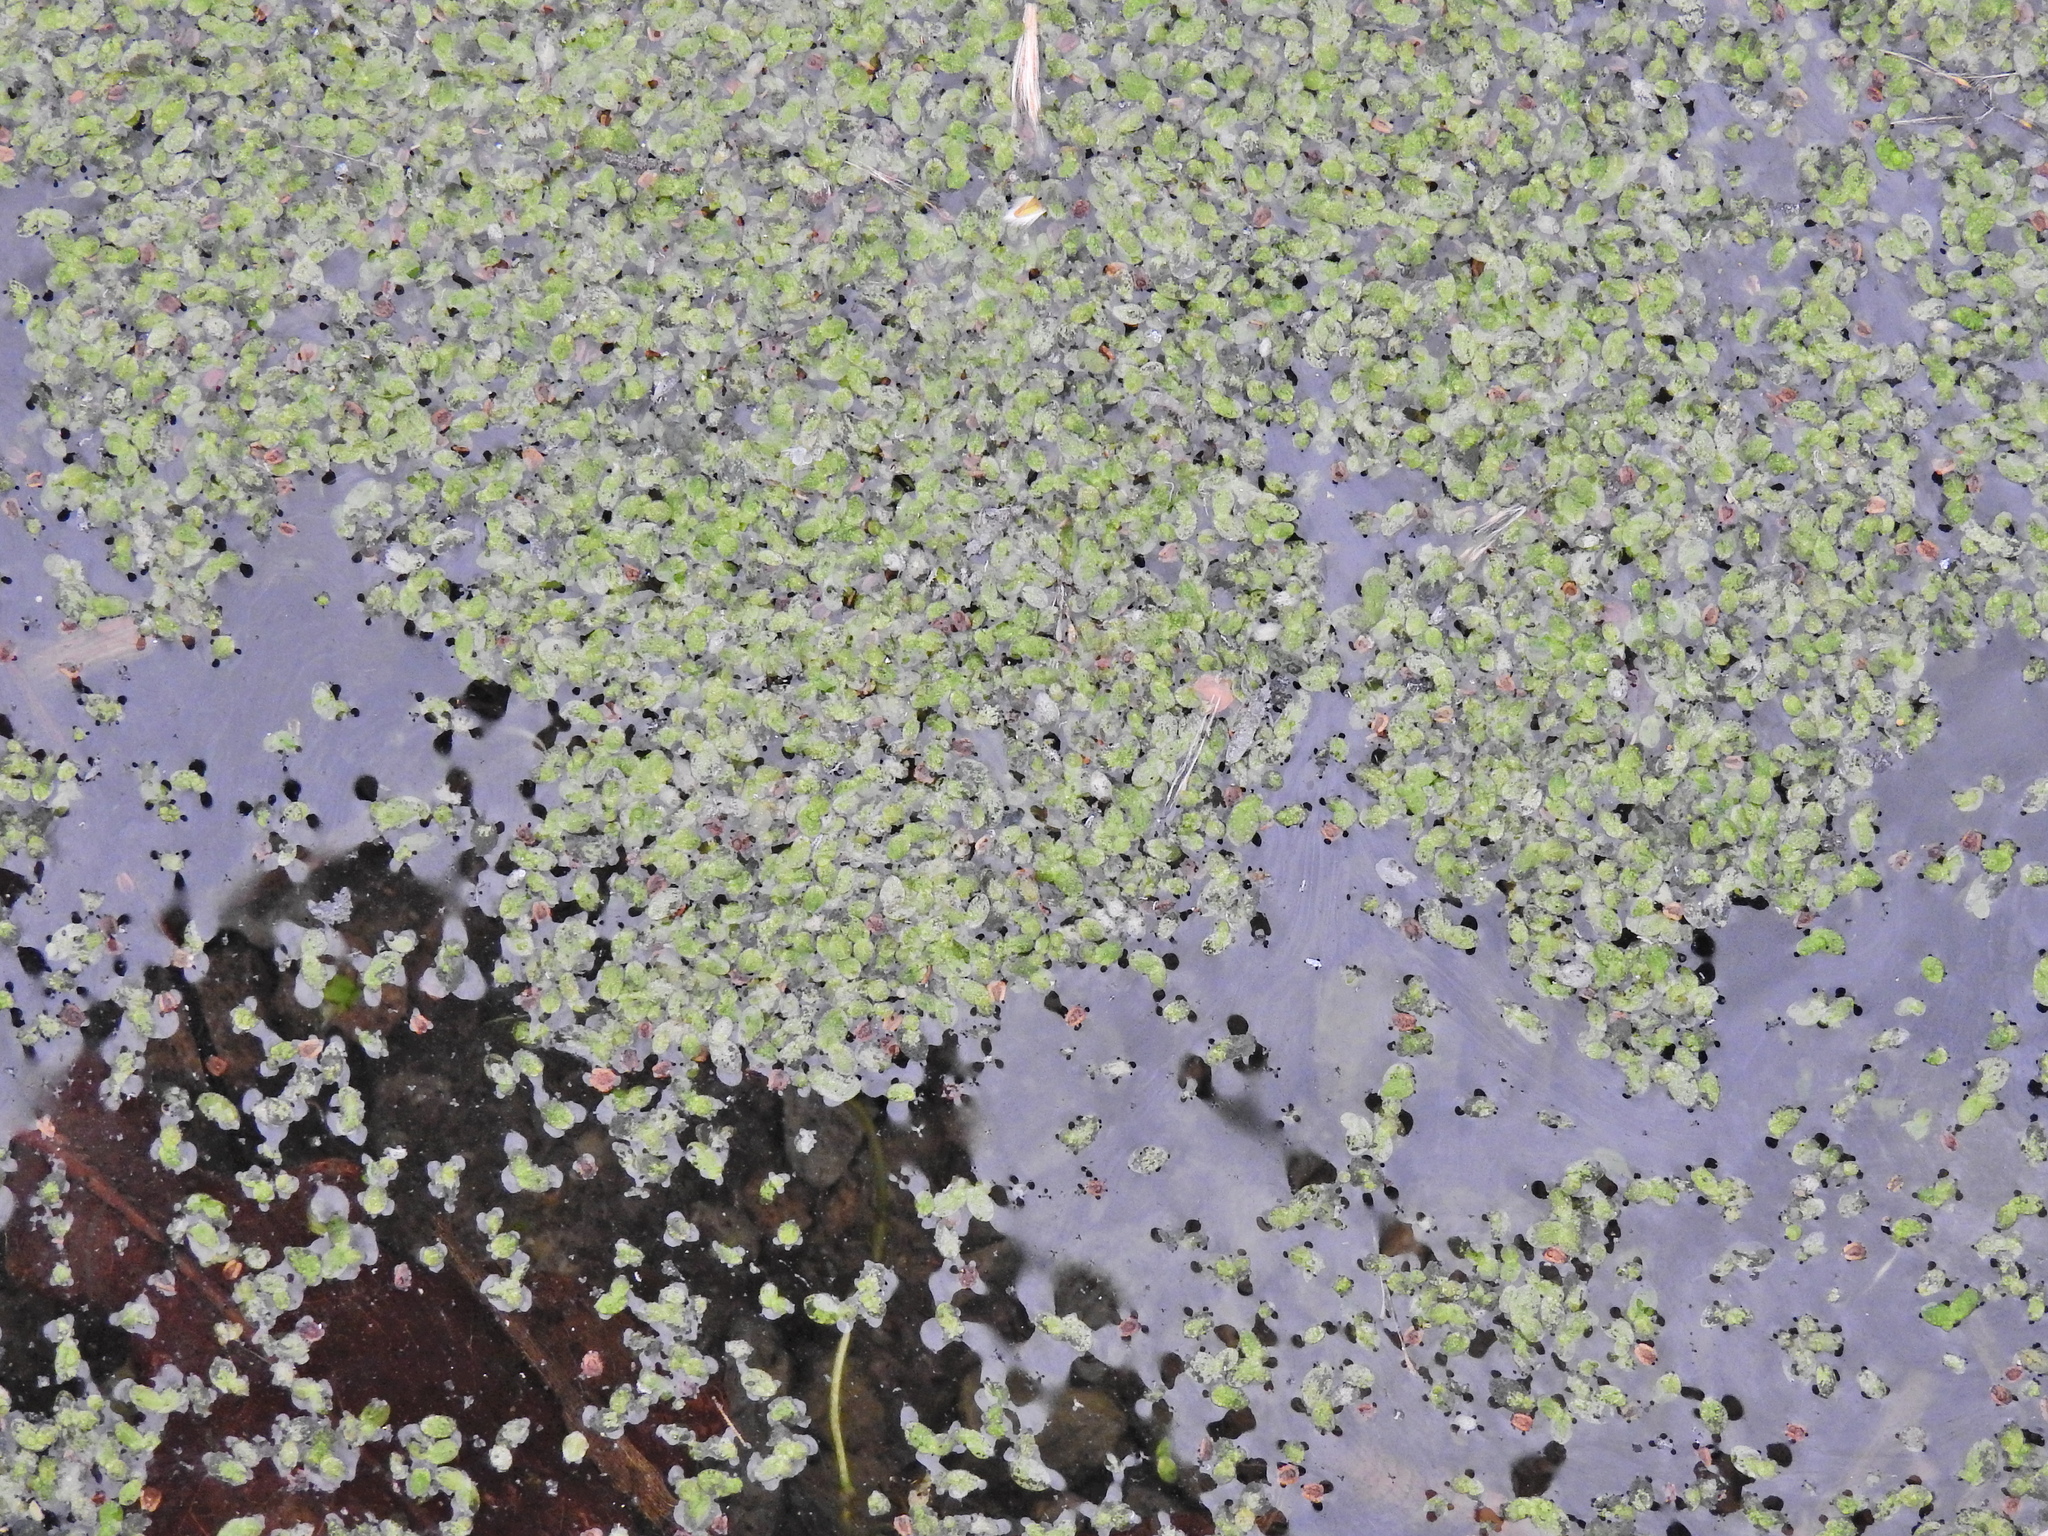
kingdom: Plantae
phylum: Tracheophyta
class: Liliopsida
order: Alismatales
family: Araceae
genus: Lemna
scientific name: Lemna minor
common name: Common duckweed
